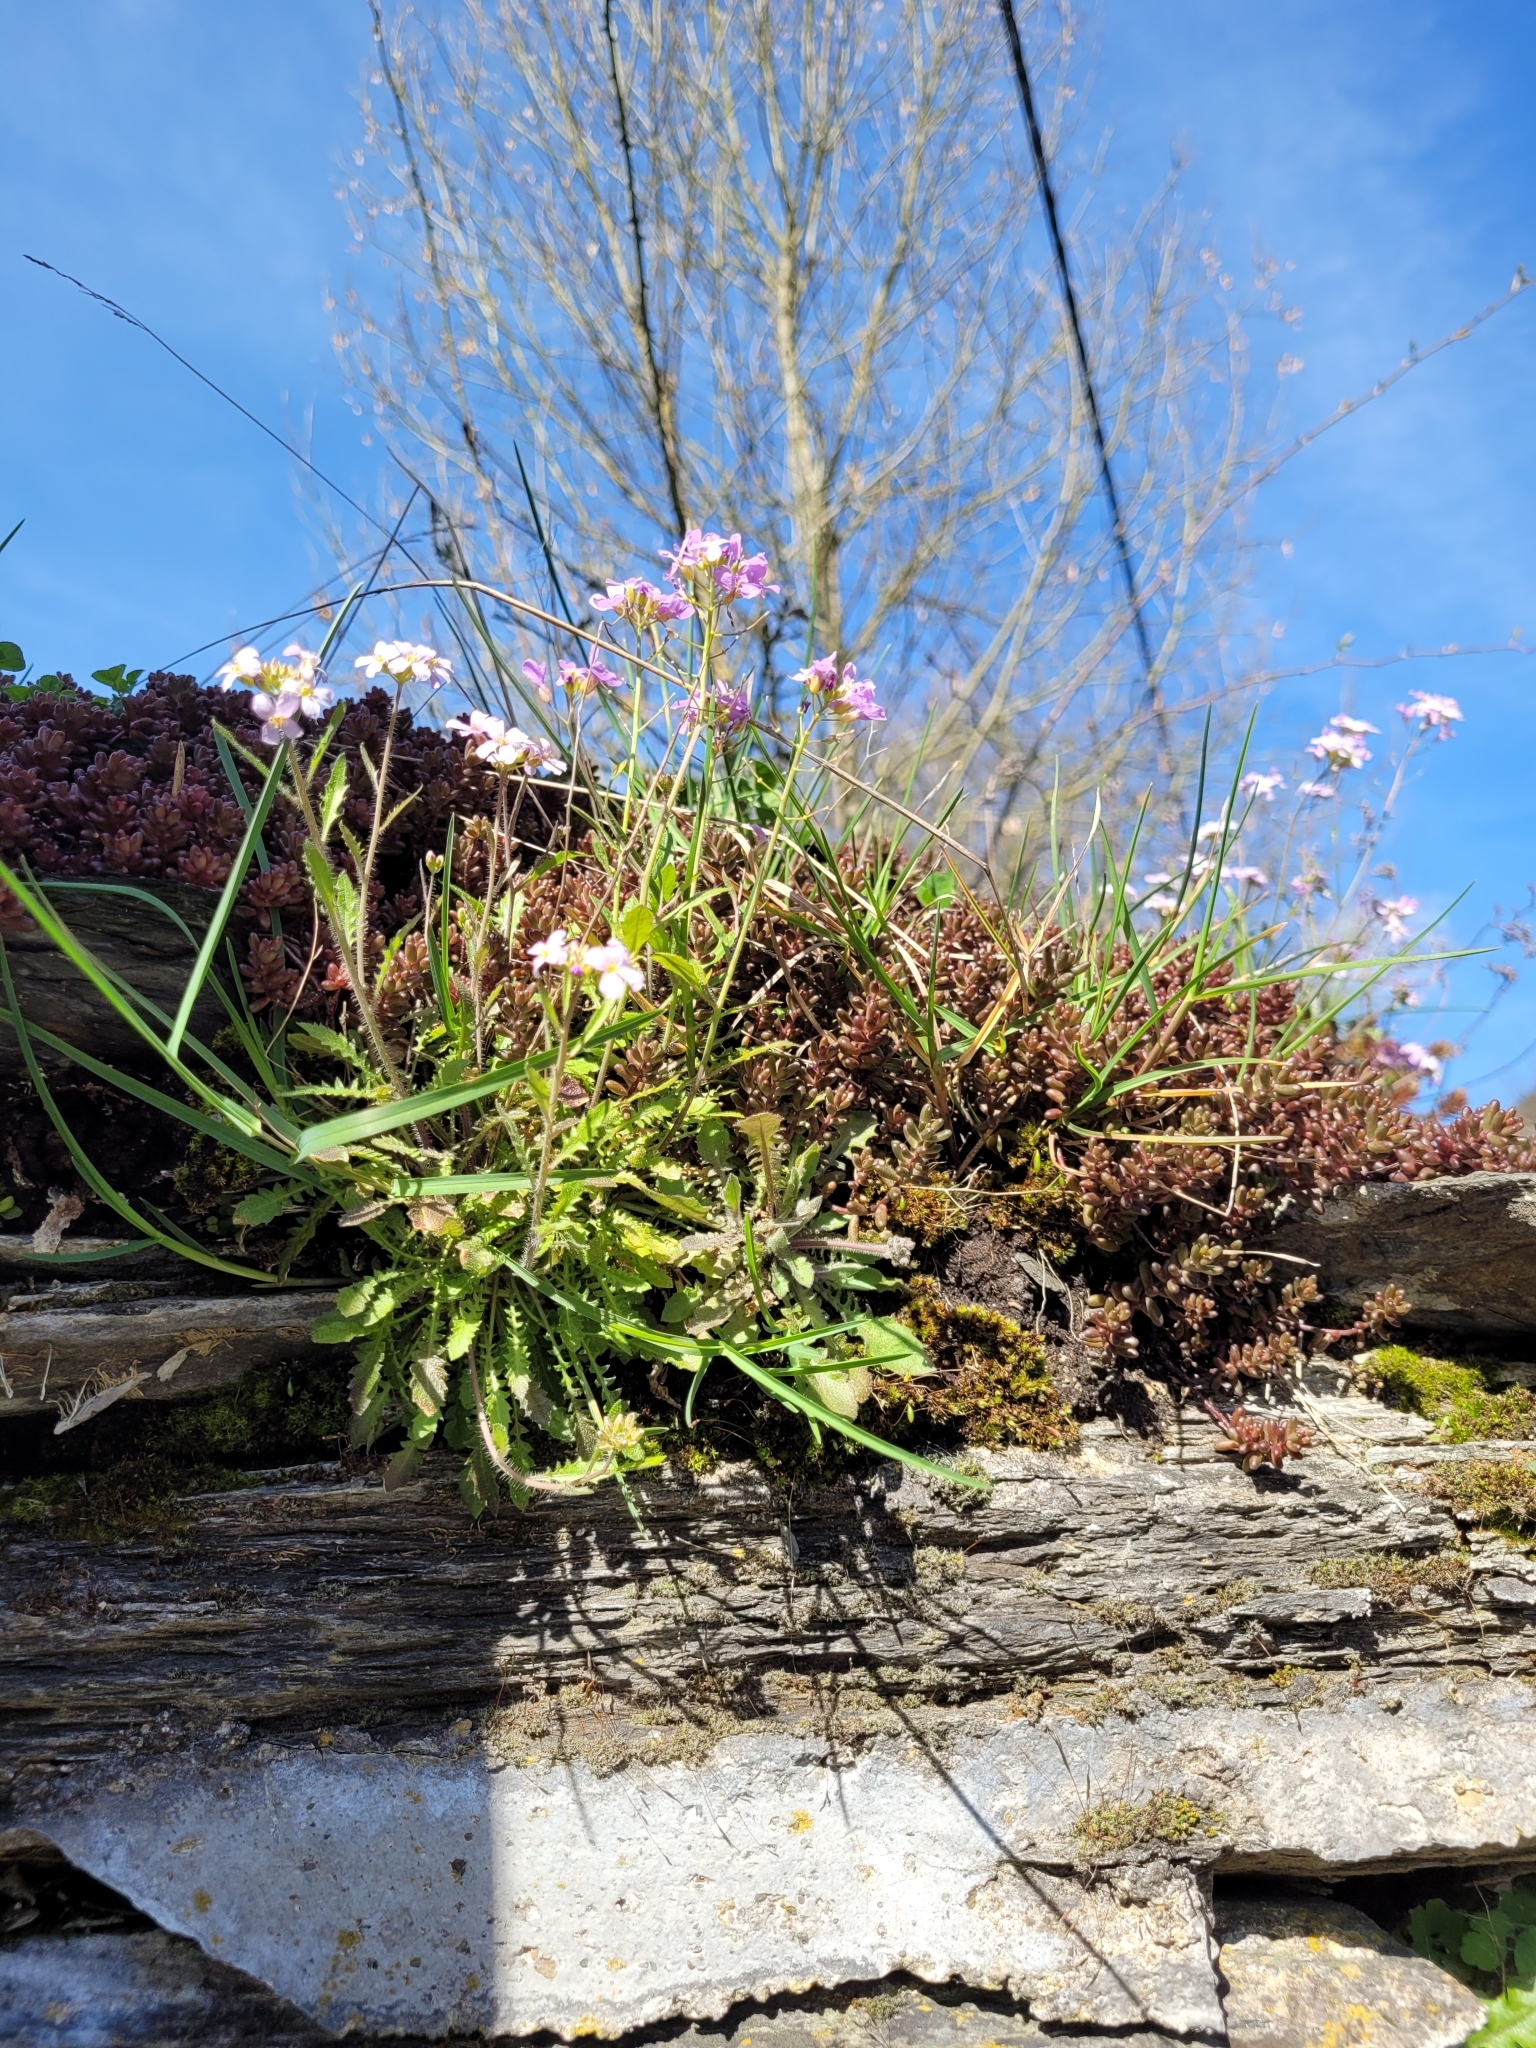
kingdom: Plantae
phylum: Tracheophyta
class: Magnoliopsida
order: Brassicales
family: Brassicaceae
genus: Arabidopsis
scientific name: Arabidopsis arenosa
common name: Sand rock-cress
